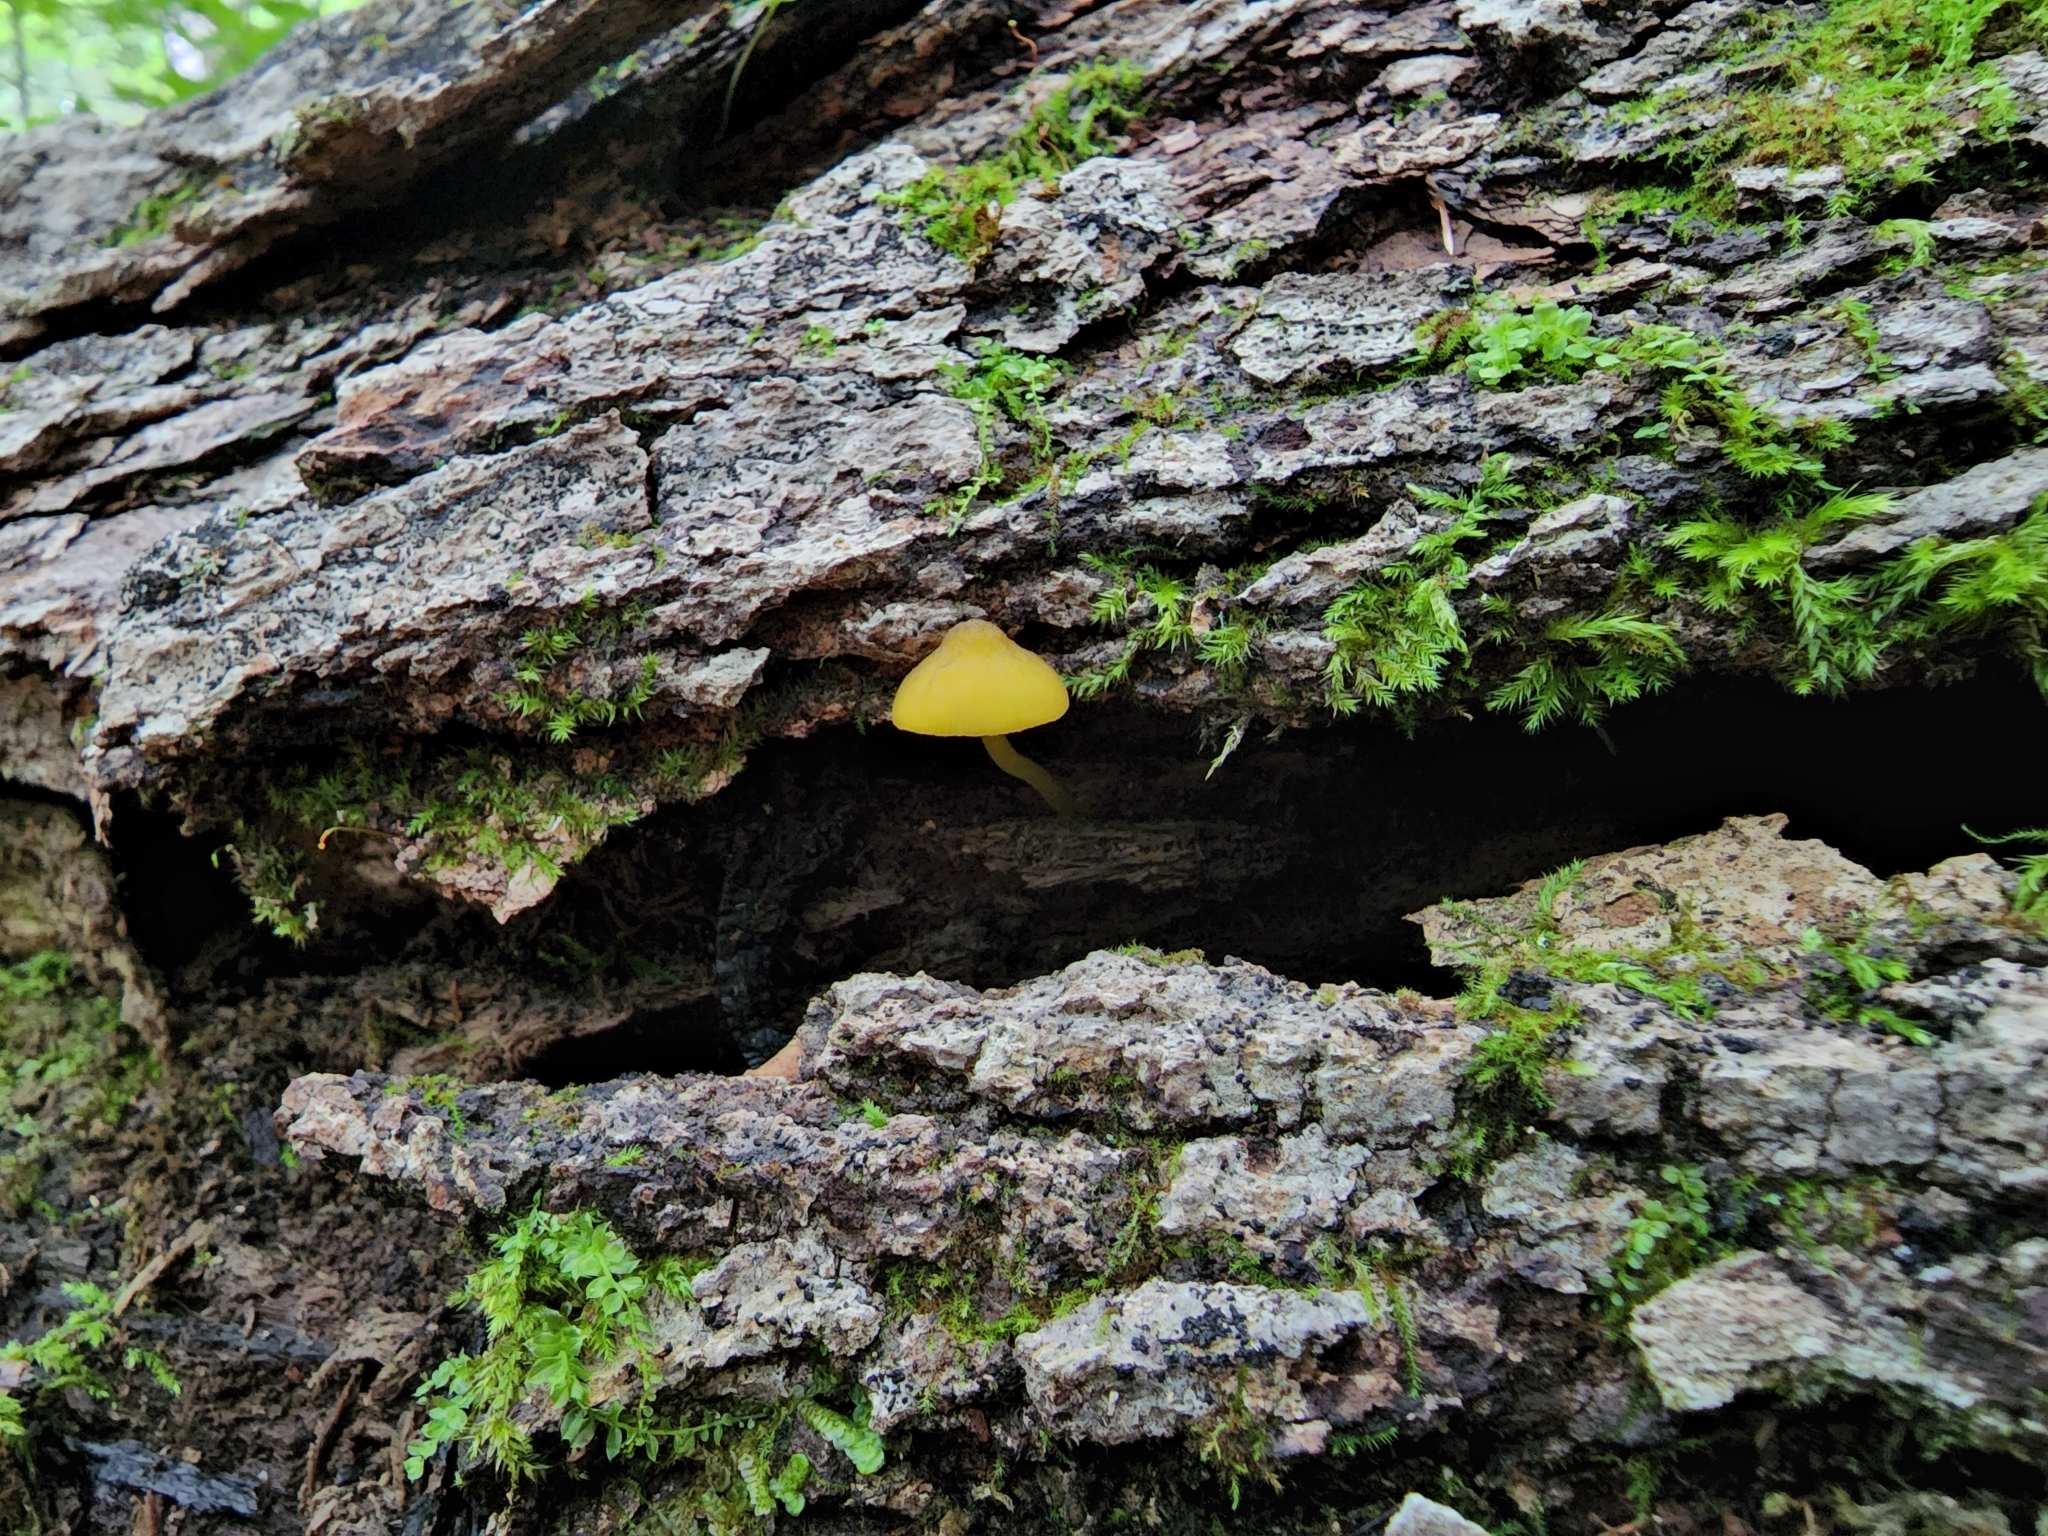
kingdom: Fungi
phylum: Basidiomycota
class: Agaricomycetes
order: Agaricales
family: Pluteaceae
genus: Pluteus
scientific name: Pluteus chrysophlebius
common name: Yellow deer mushroom
